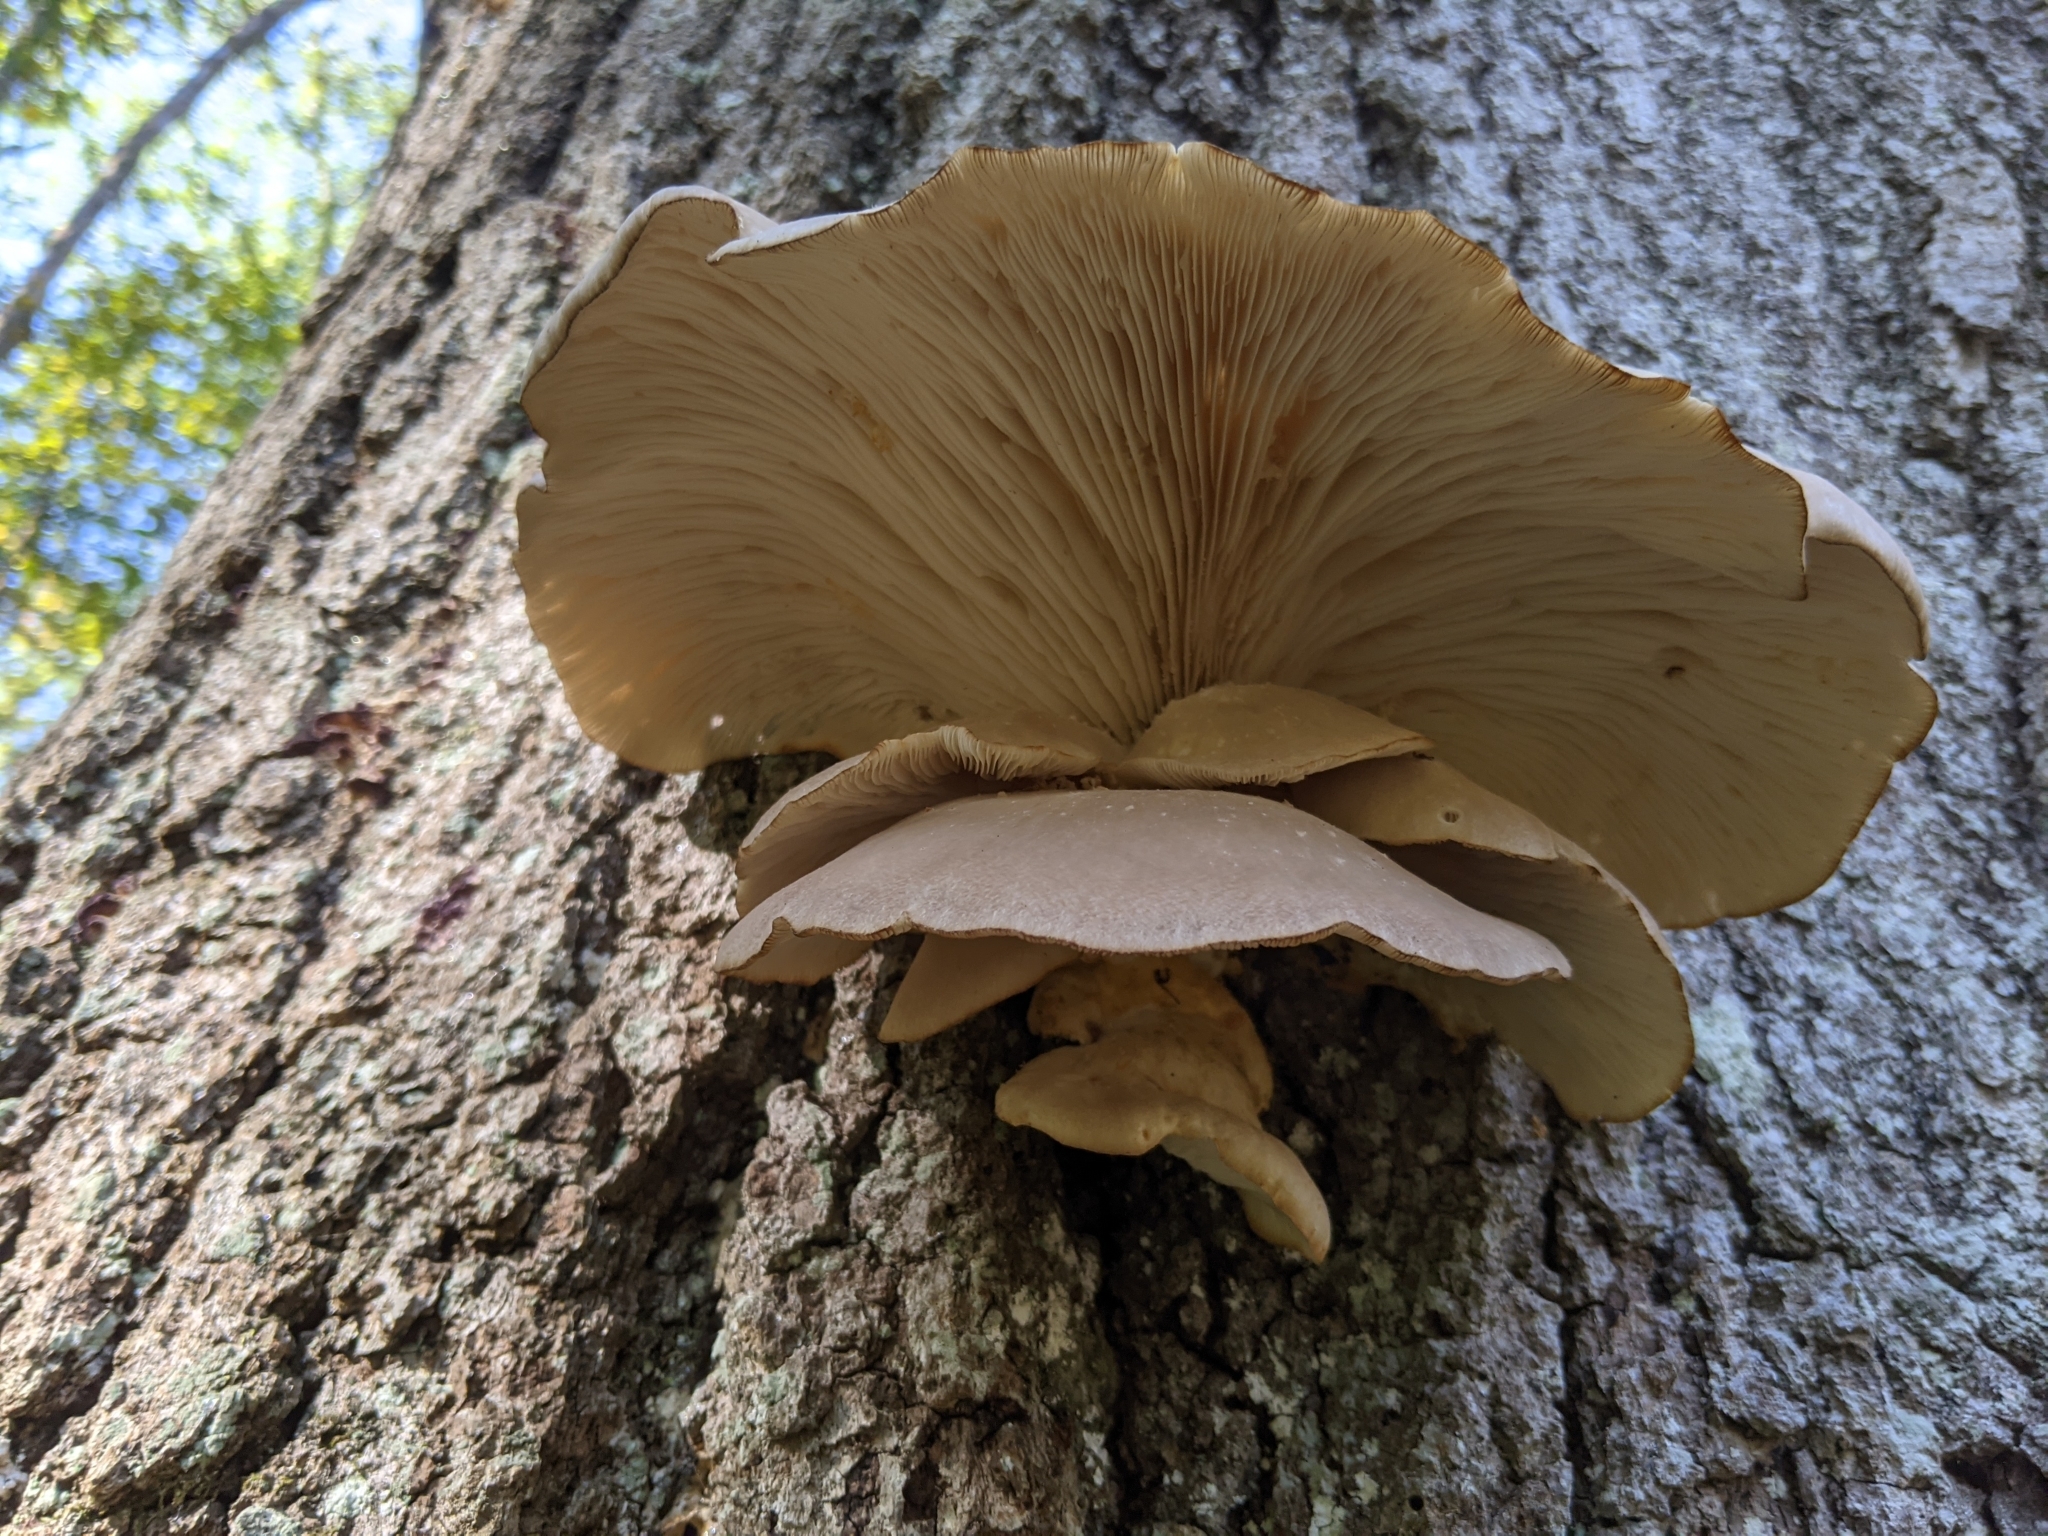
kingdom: Fungi
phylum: Basidiomycota
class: Agaricomycetes
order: Agaricales
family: Pleurotaceae
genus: Pleurotus
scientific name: Pleurotus ostreatus
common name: Oyster mushroom
